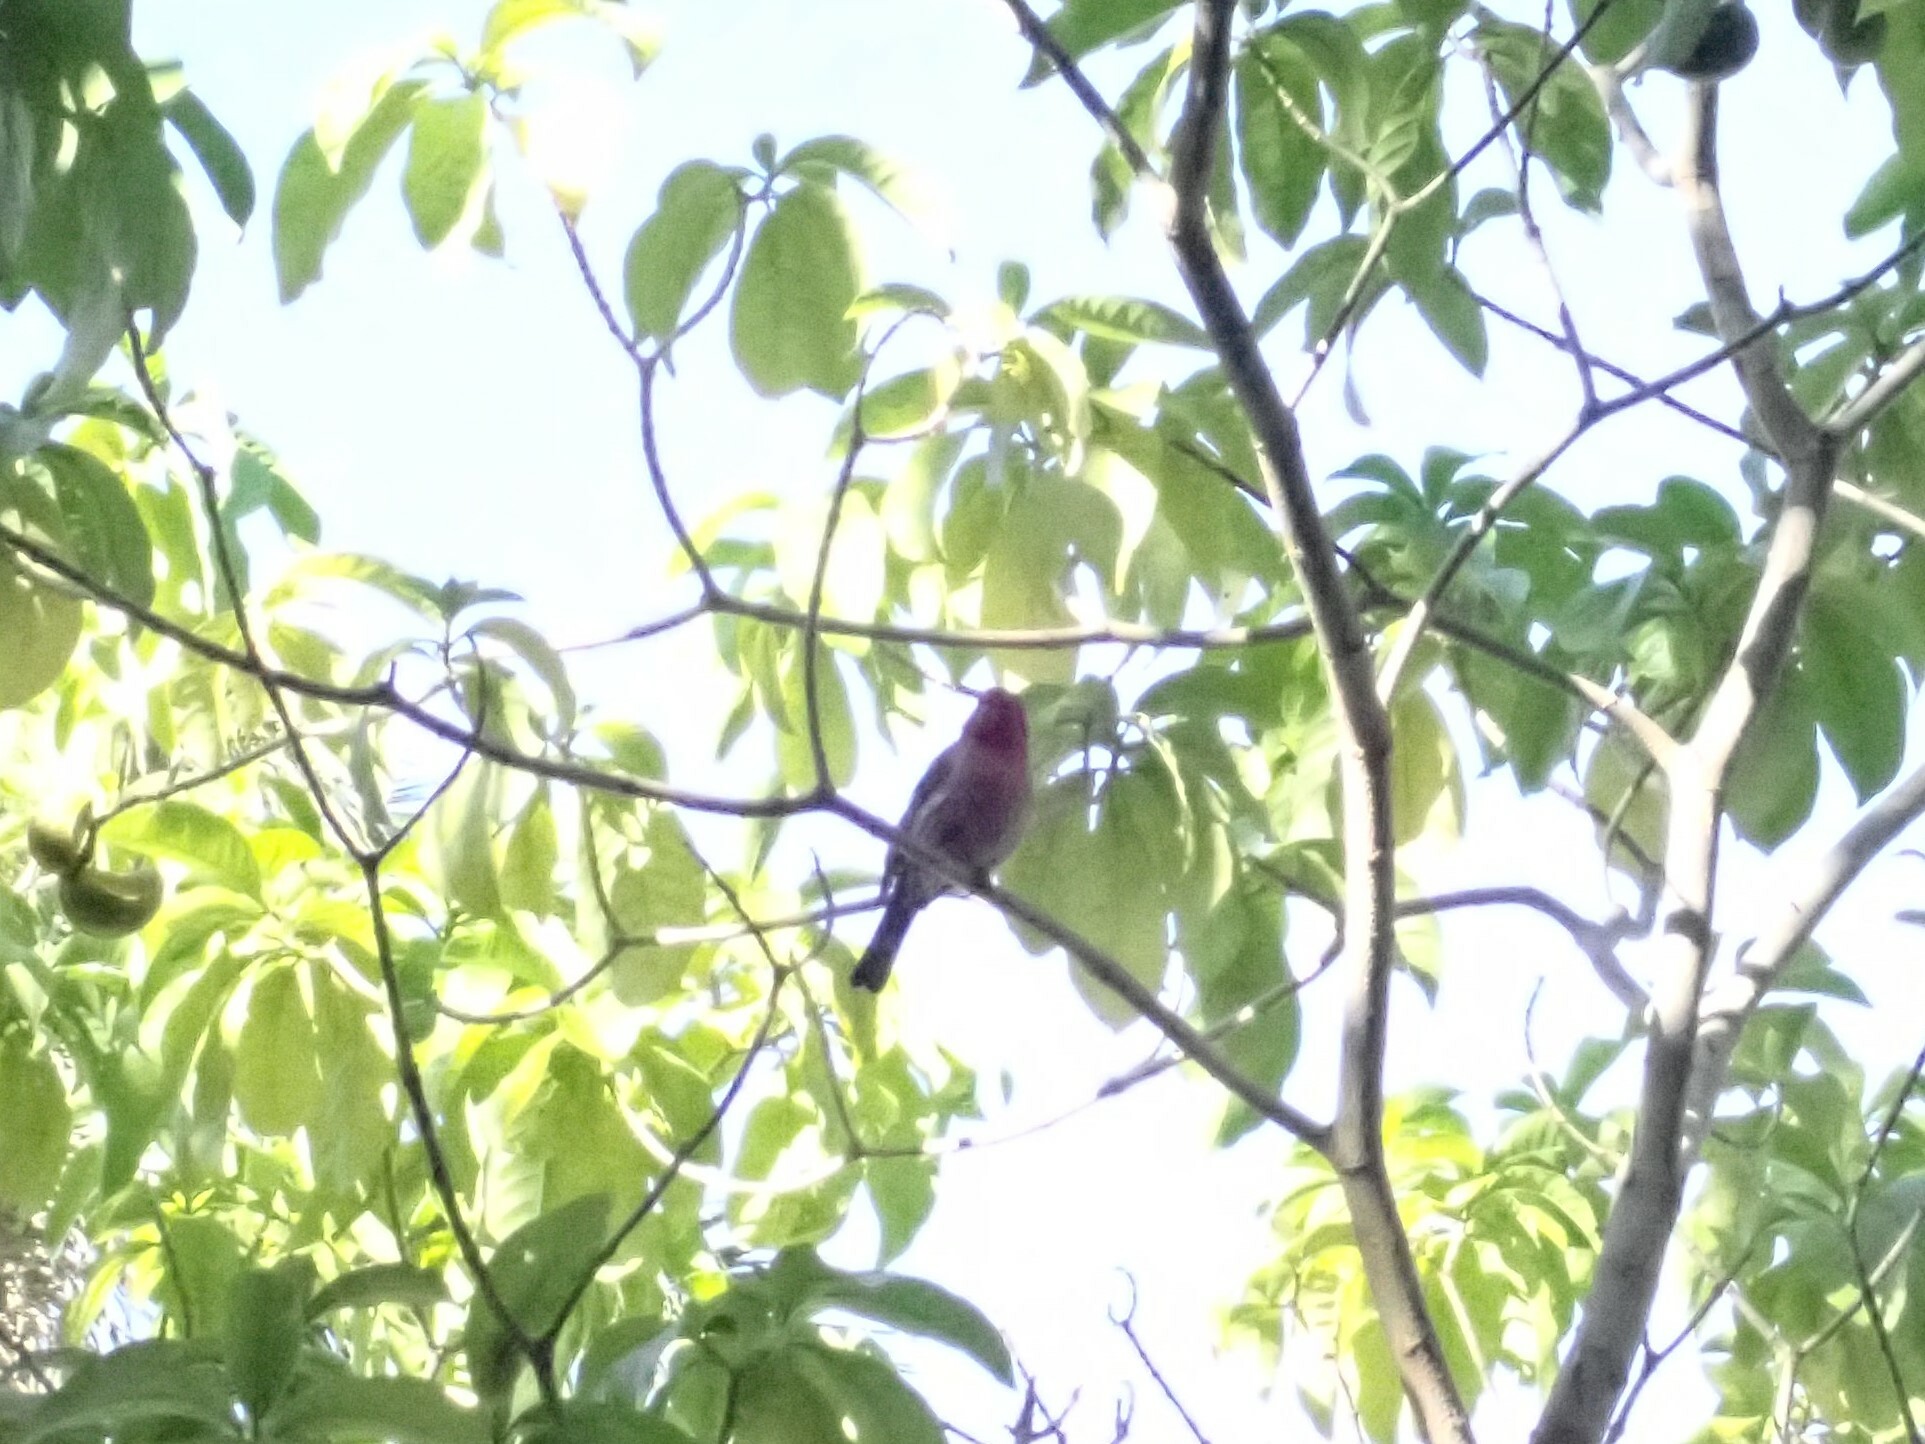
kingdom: Animalia
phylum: Chordata
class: Aves
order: Passeriformes
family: Fringillidae
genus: Haemorhous
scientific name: Haemorhous mexicanus
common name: House finch
